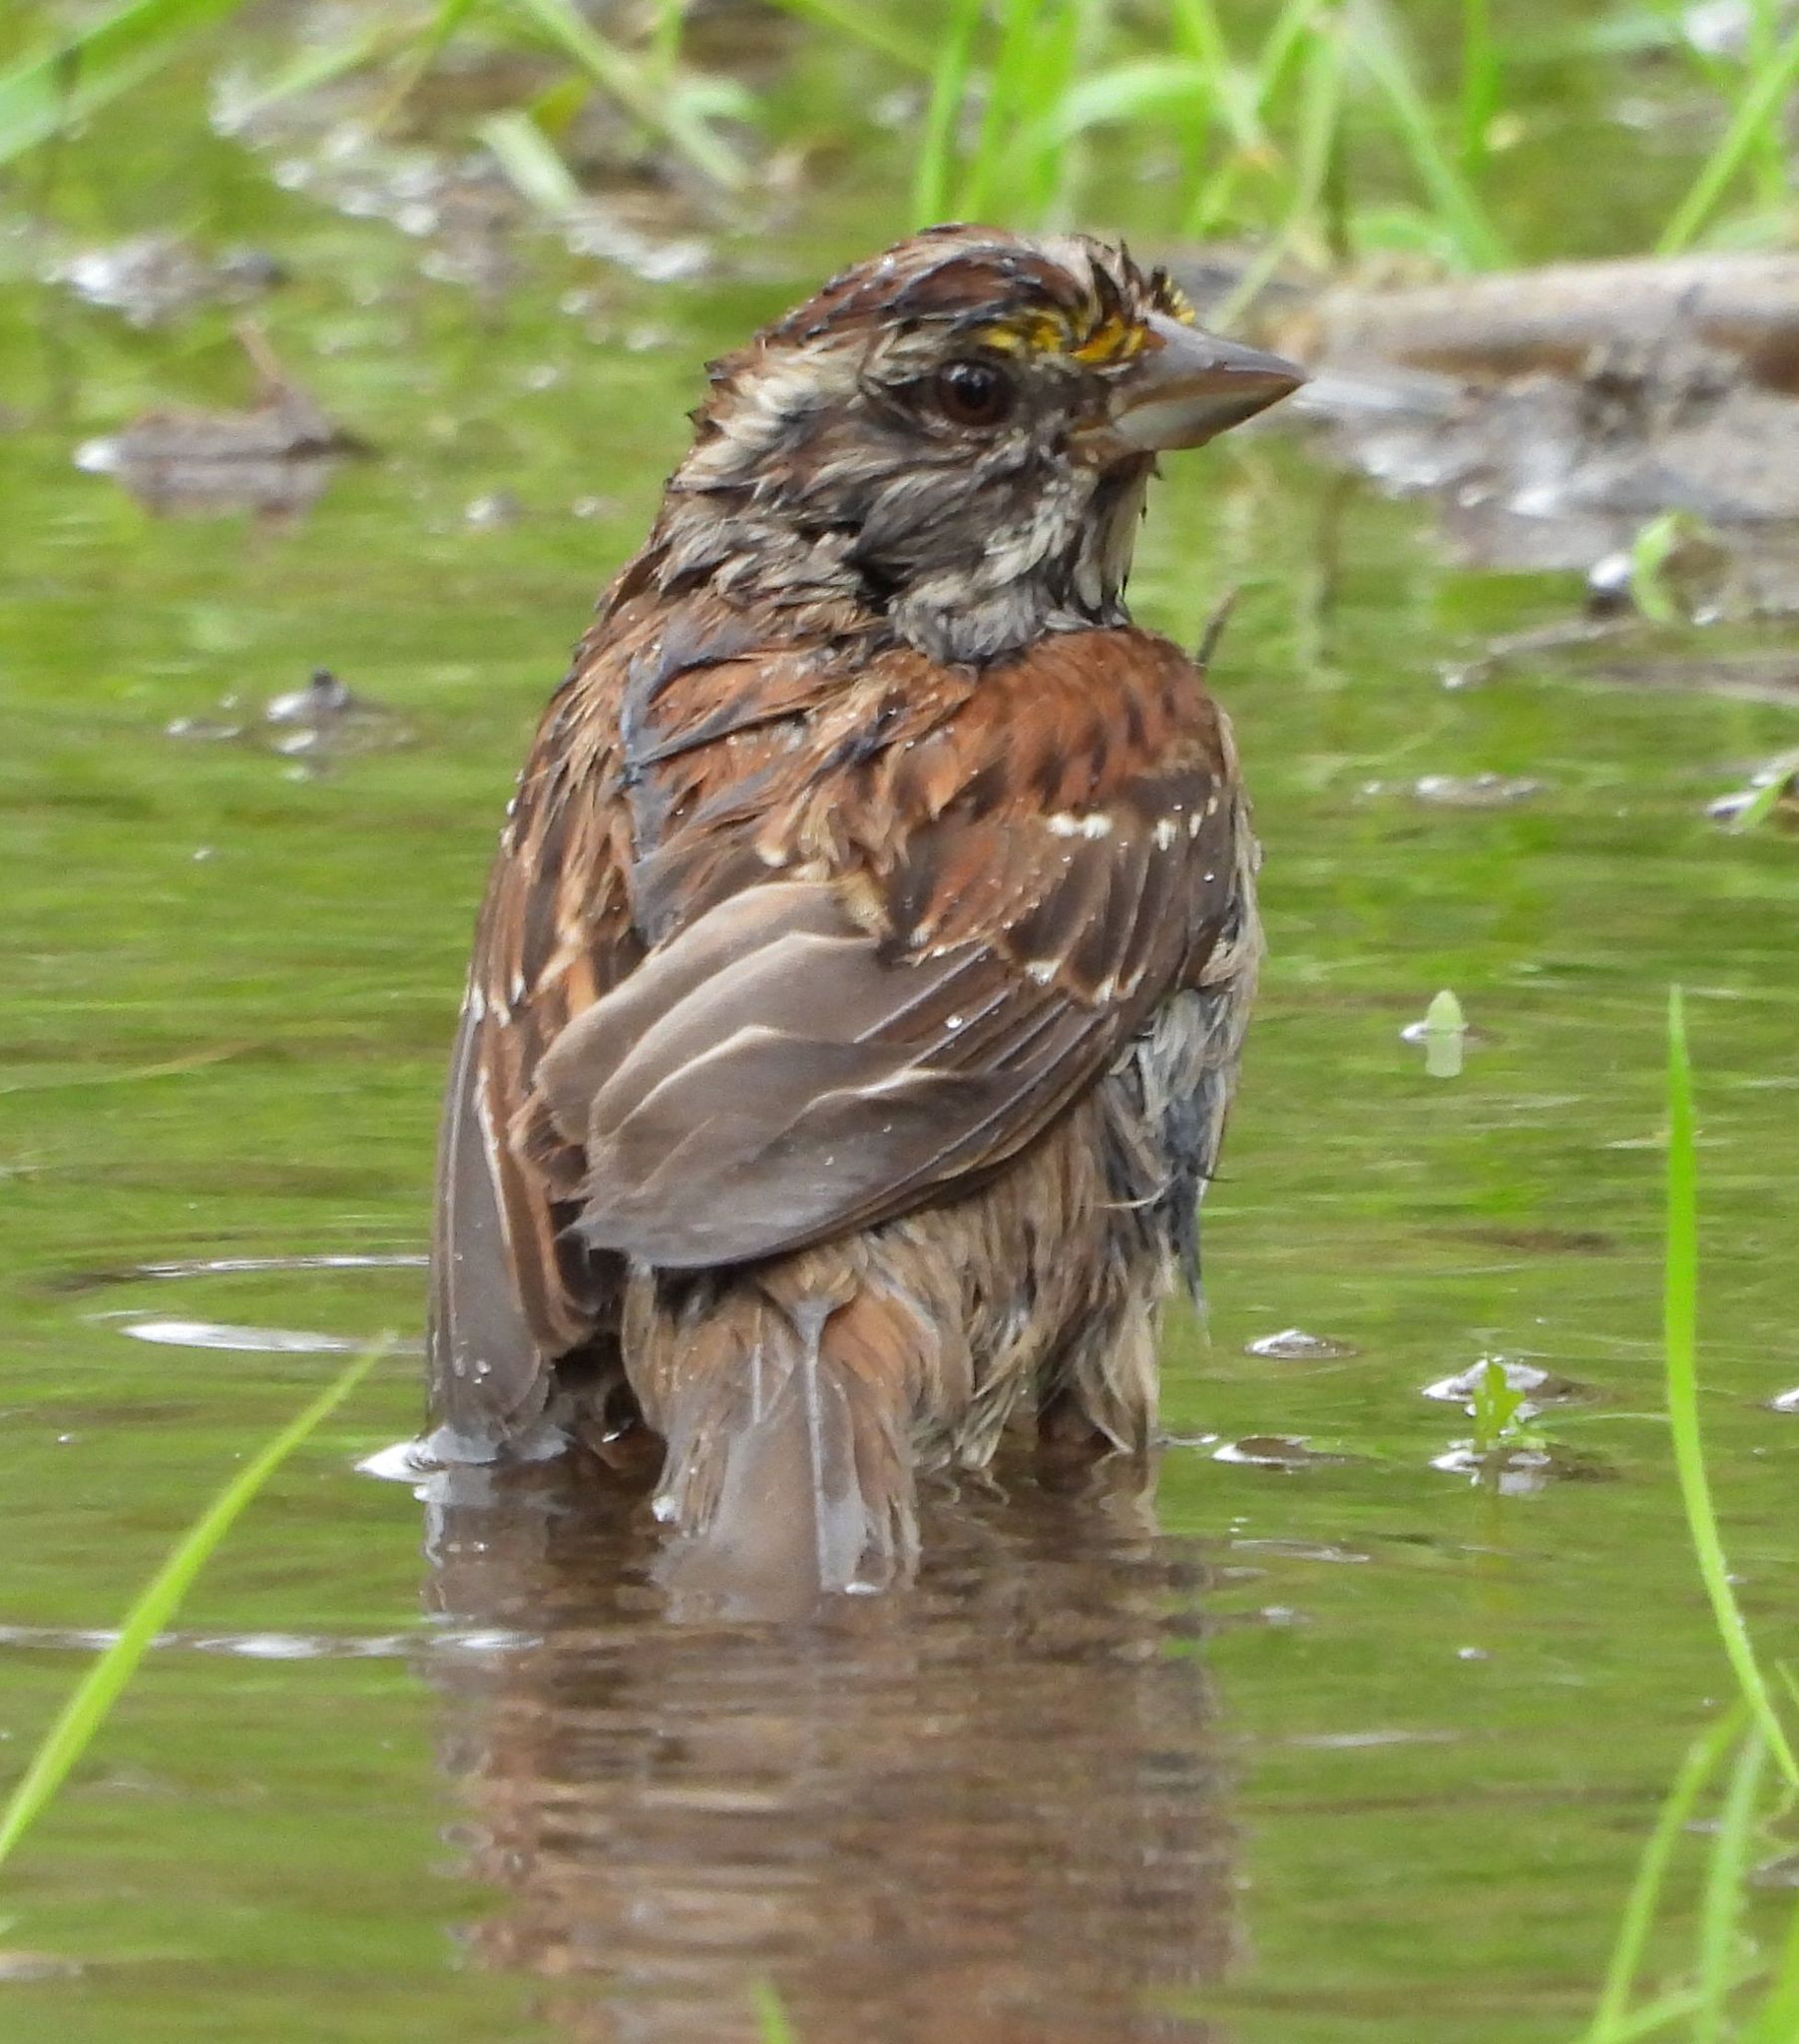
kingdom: Animalia
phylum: Chordata
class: Aves
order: Passeriformes
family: Passerellidae
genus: Zonotrichia
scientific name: Zonotrichia albicollis
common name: White-throated sparrow
